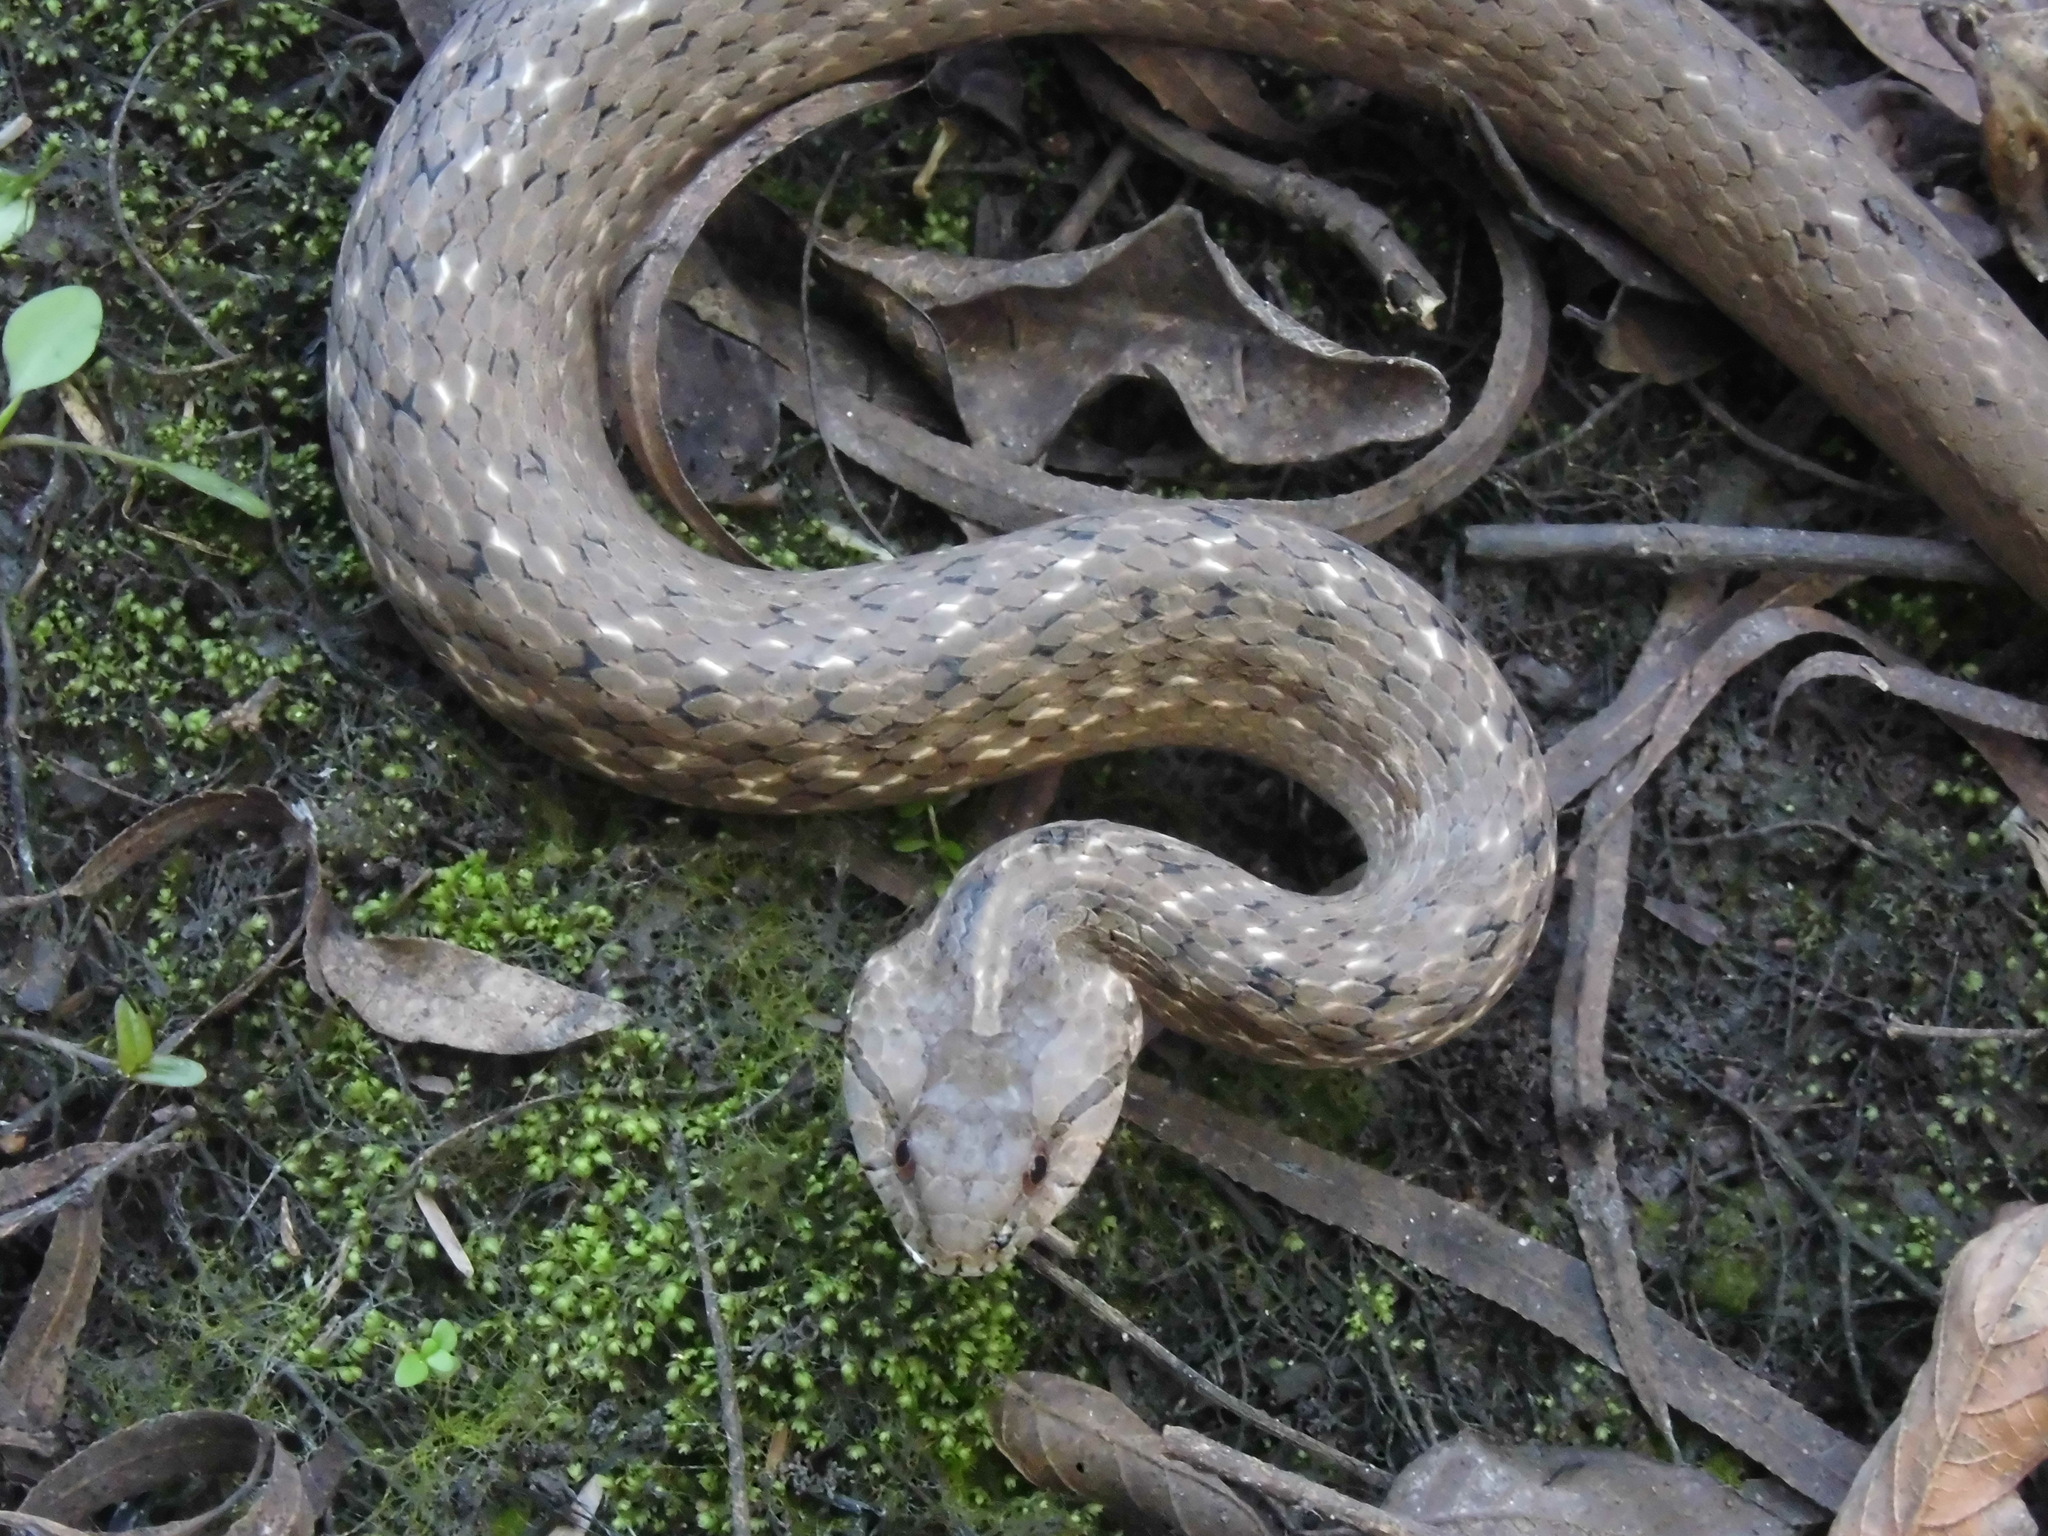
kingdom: Animalia
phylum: Chordata
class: Squamata
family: Colubridae
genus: Mesotes
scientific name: Mesotes
